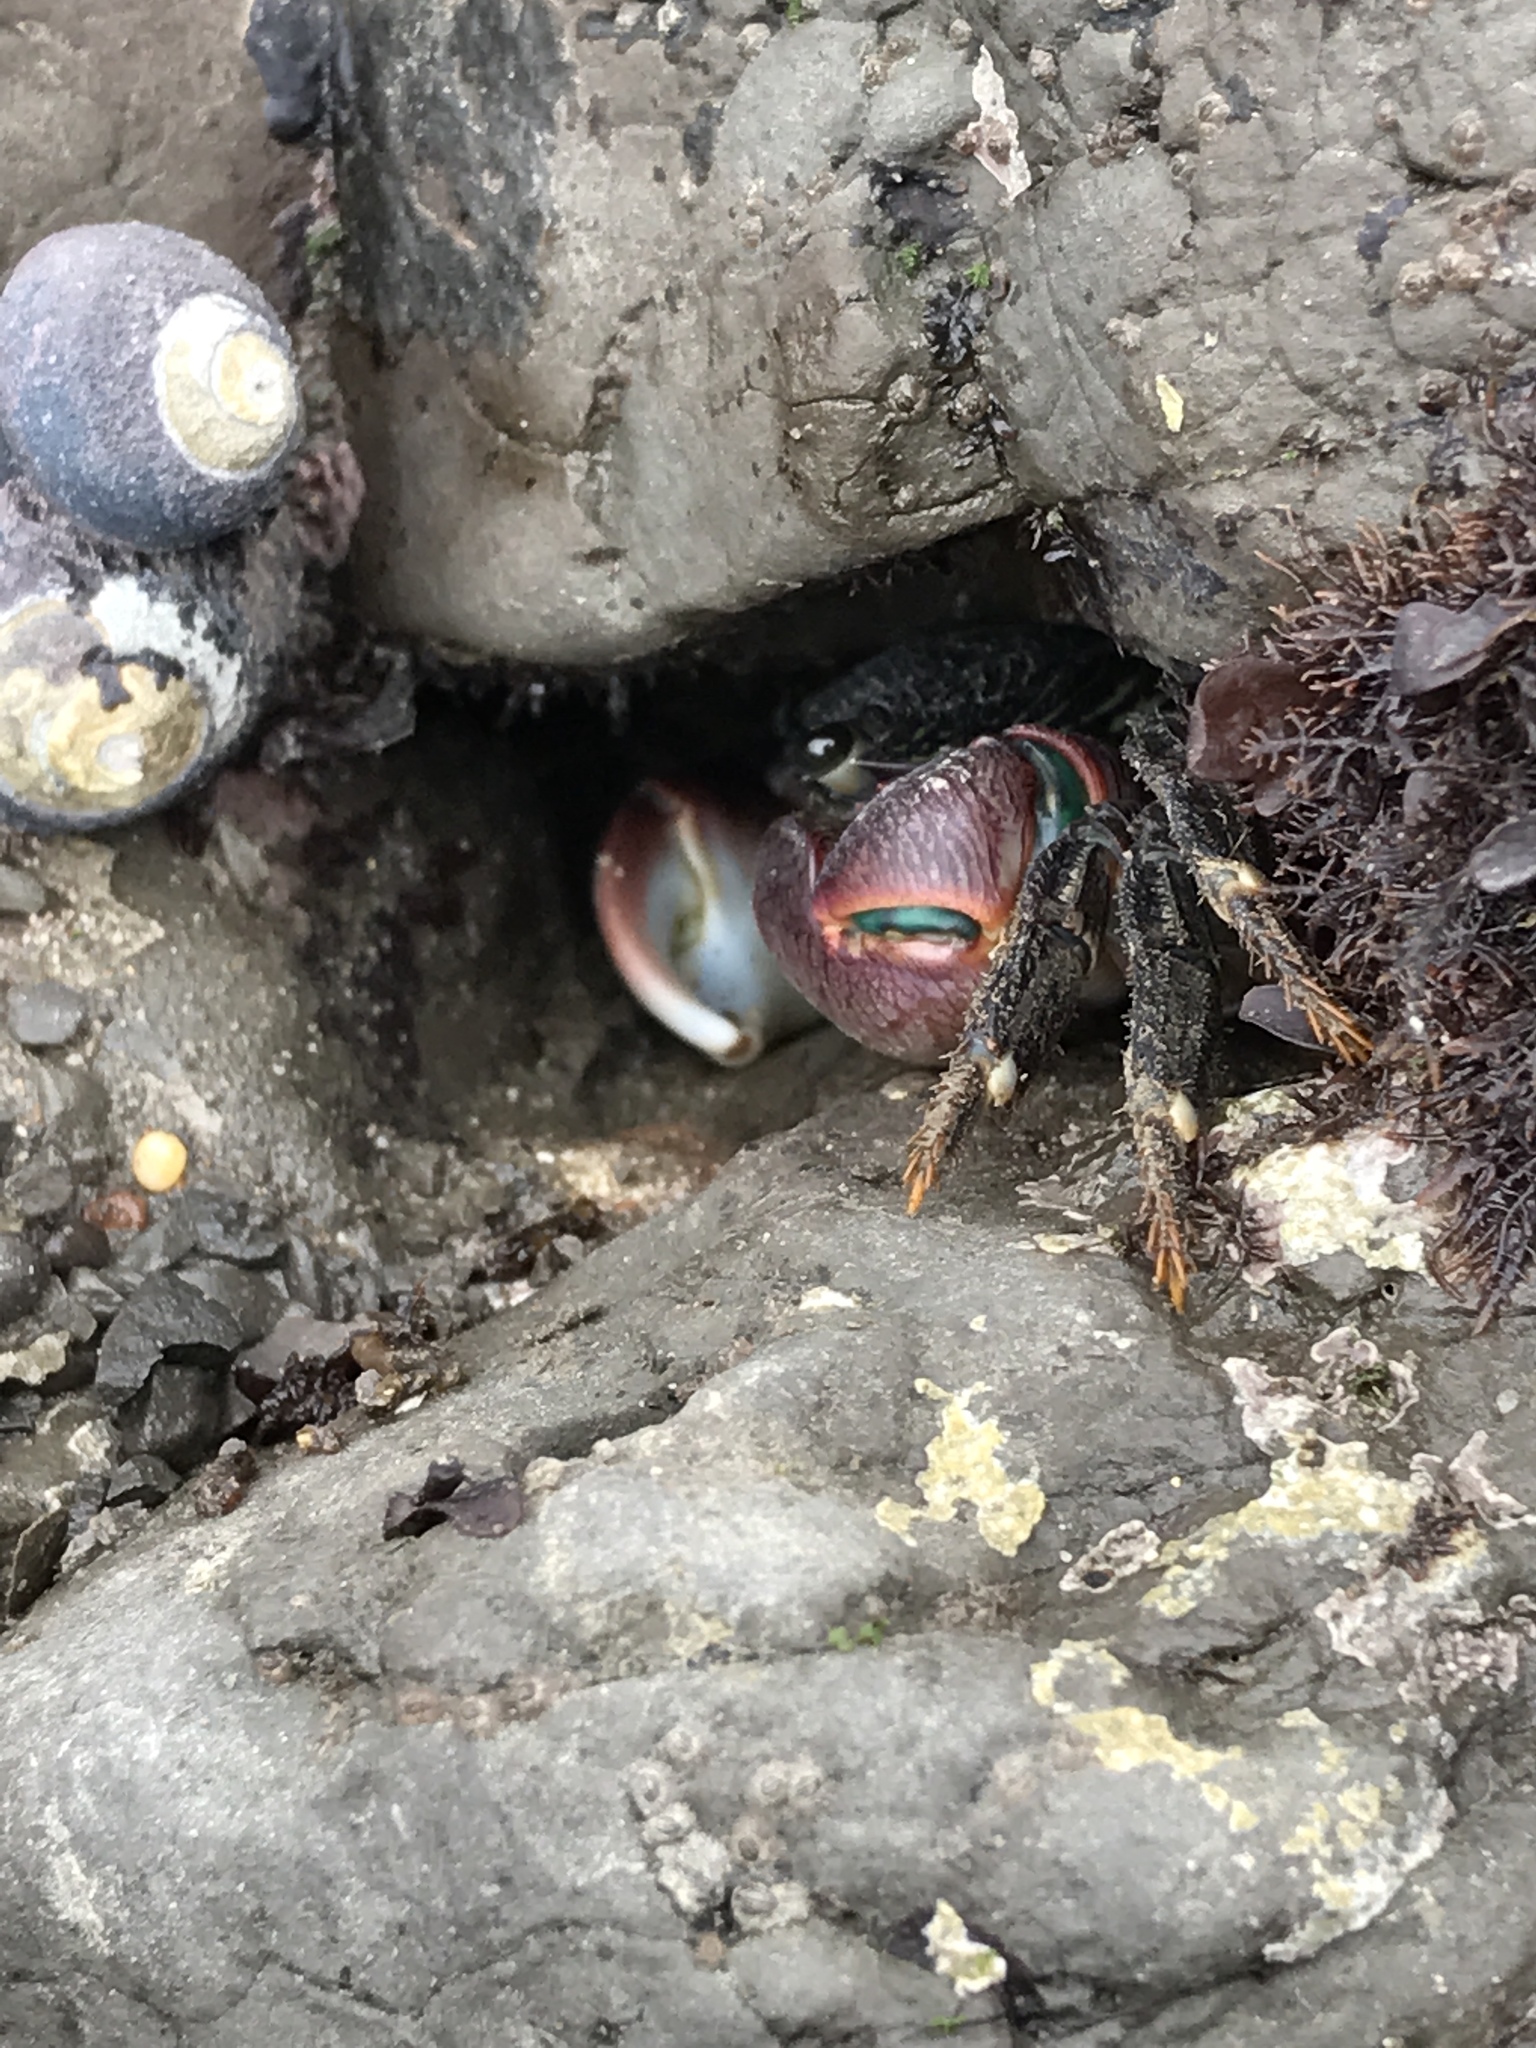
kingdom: Animalia
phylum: Arthropoda
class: Malacostraca
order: Decapoda
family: Grapsidae
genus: Pachygrapsus
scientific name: Pachygrapsus crassipes
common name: Striped shore crab
